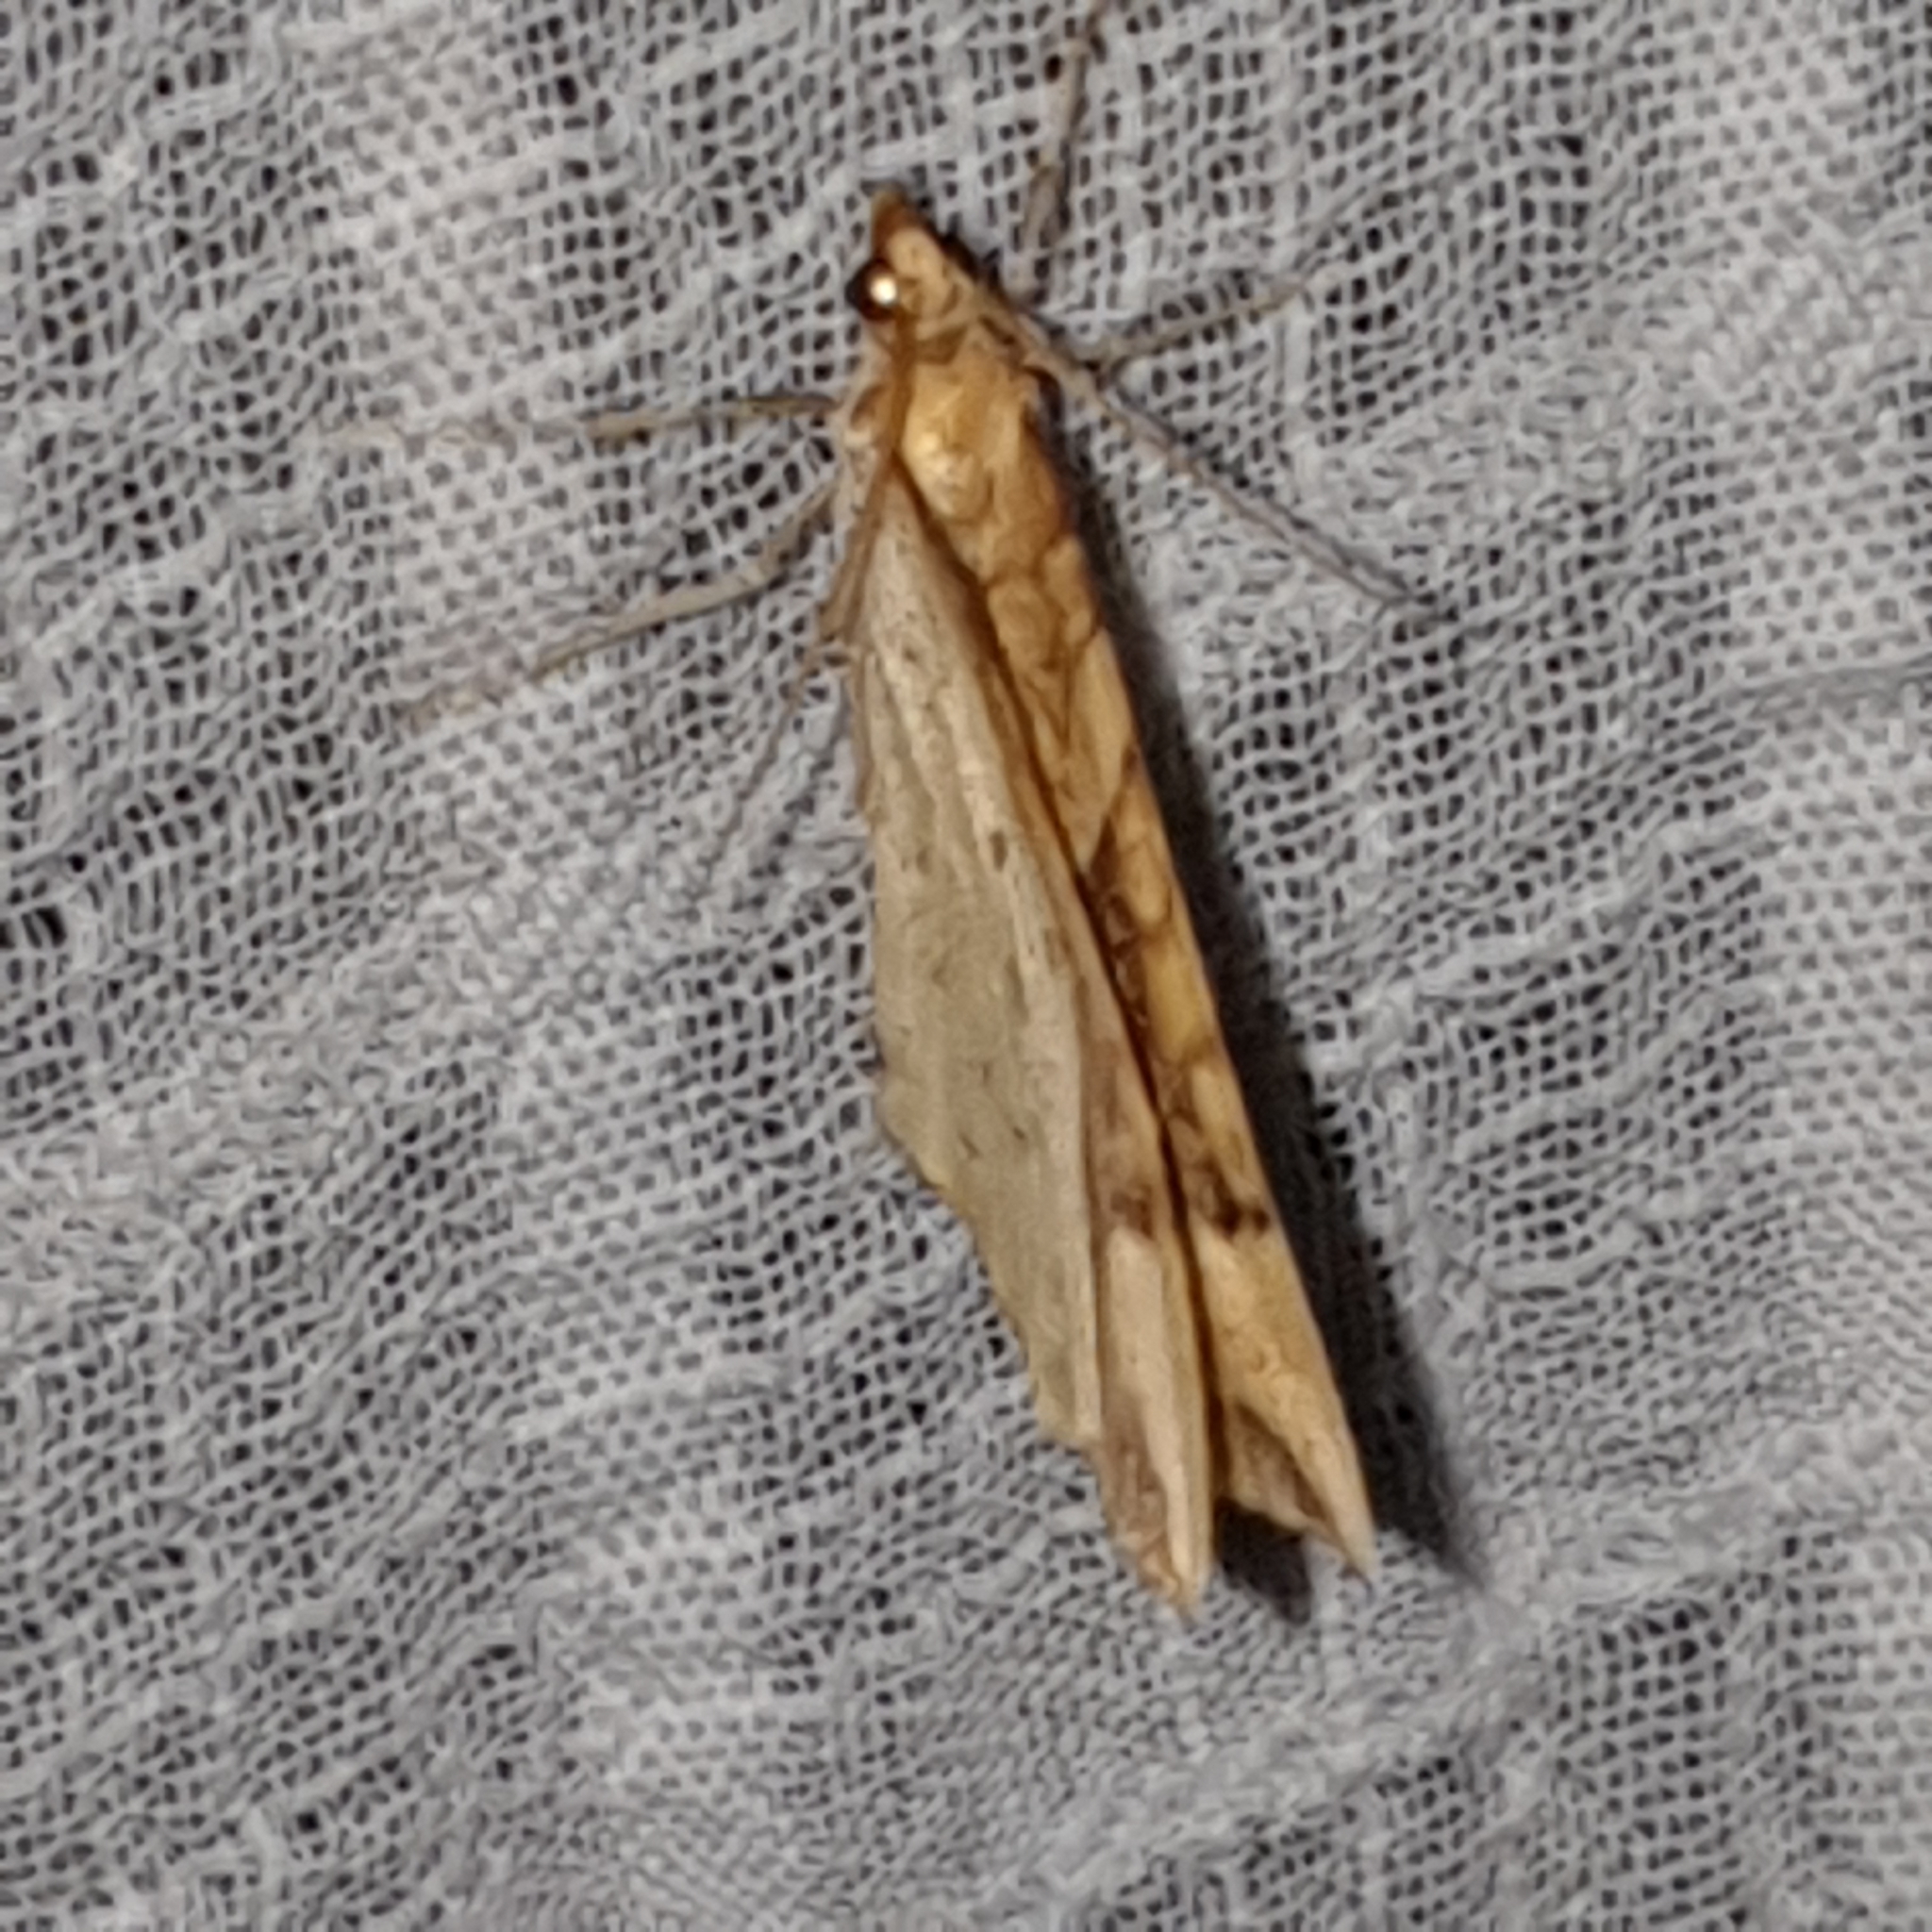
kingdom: Animalia
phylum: Arthropoda
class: Insecta
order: Lepidoptera
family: Geometridae
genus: Eulithis
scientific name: Eulithis populata
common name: Northern spinach
